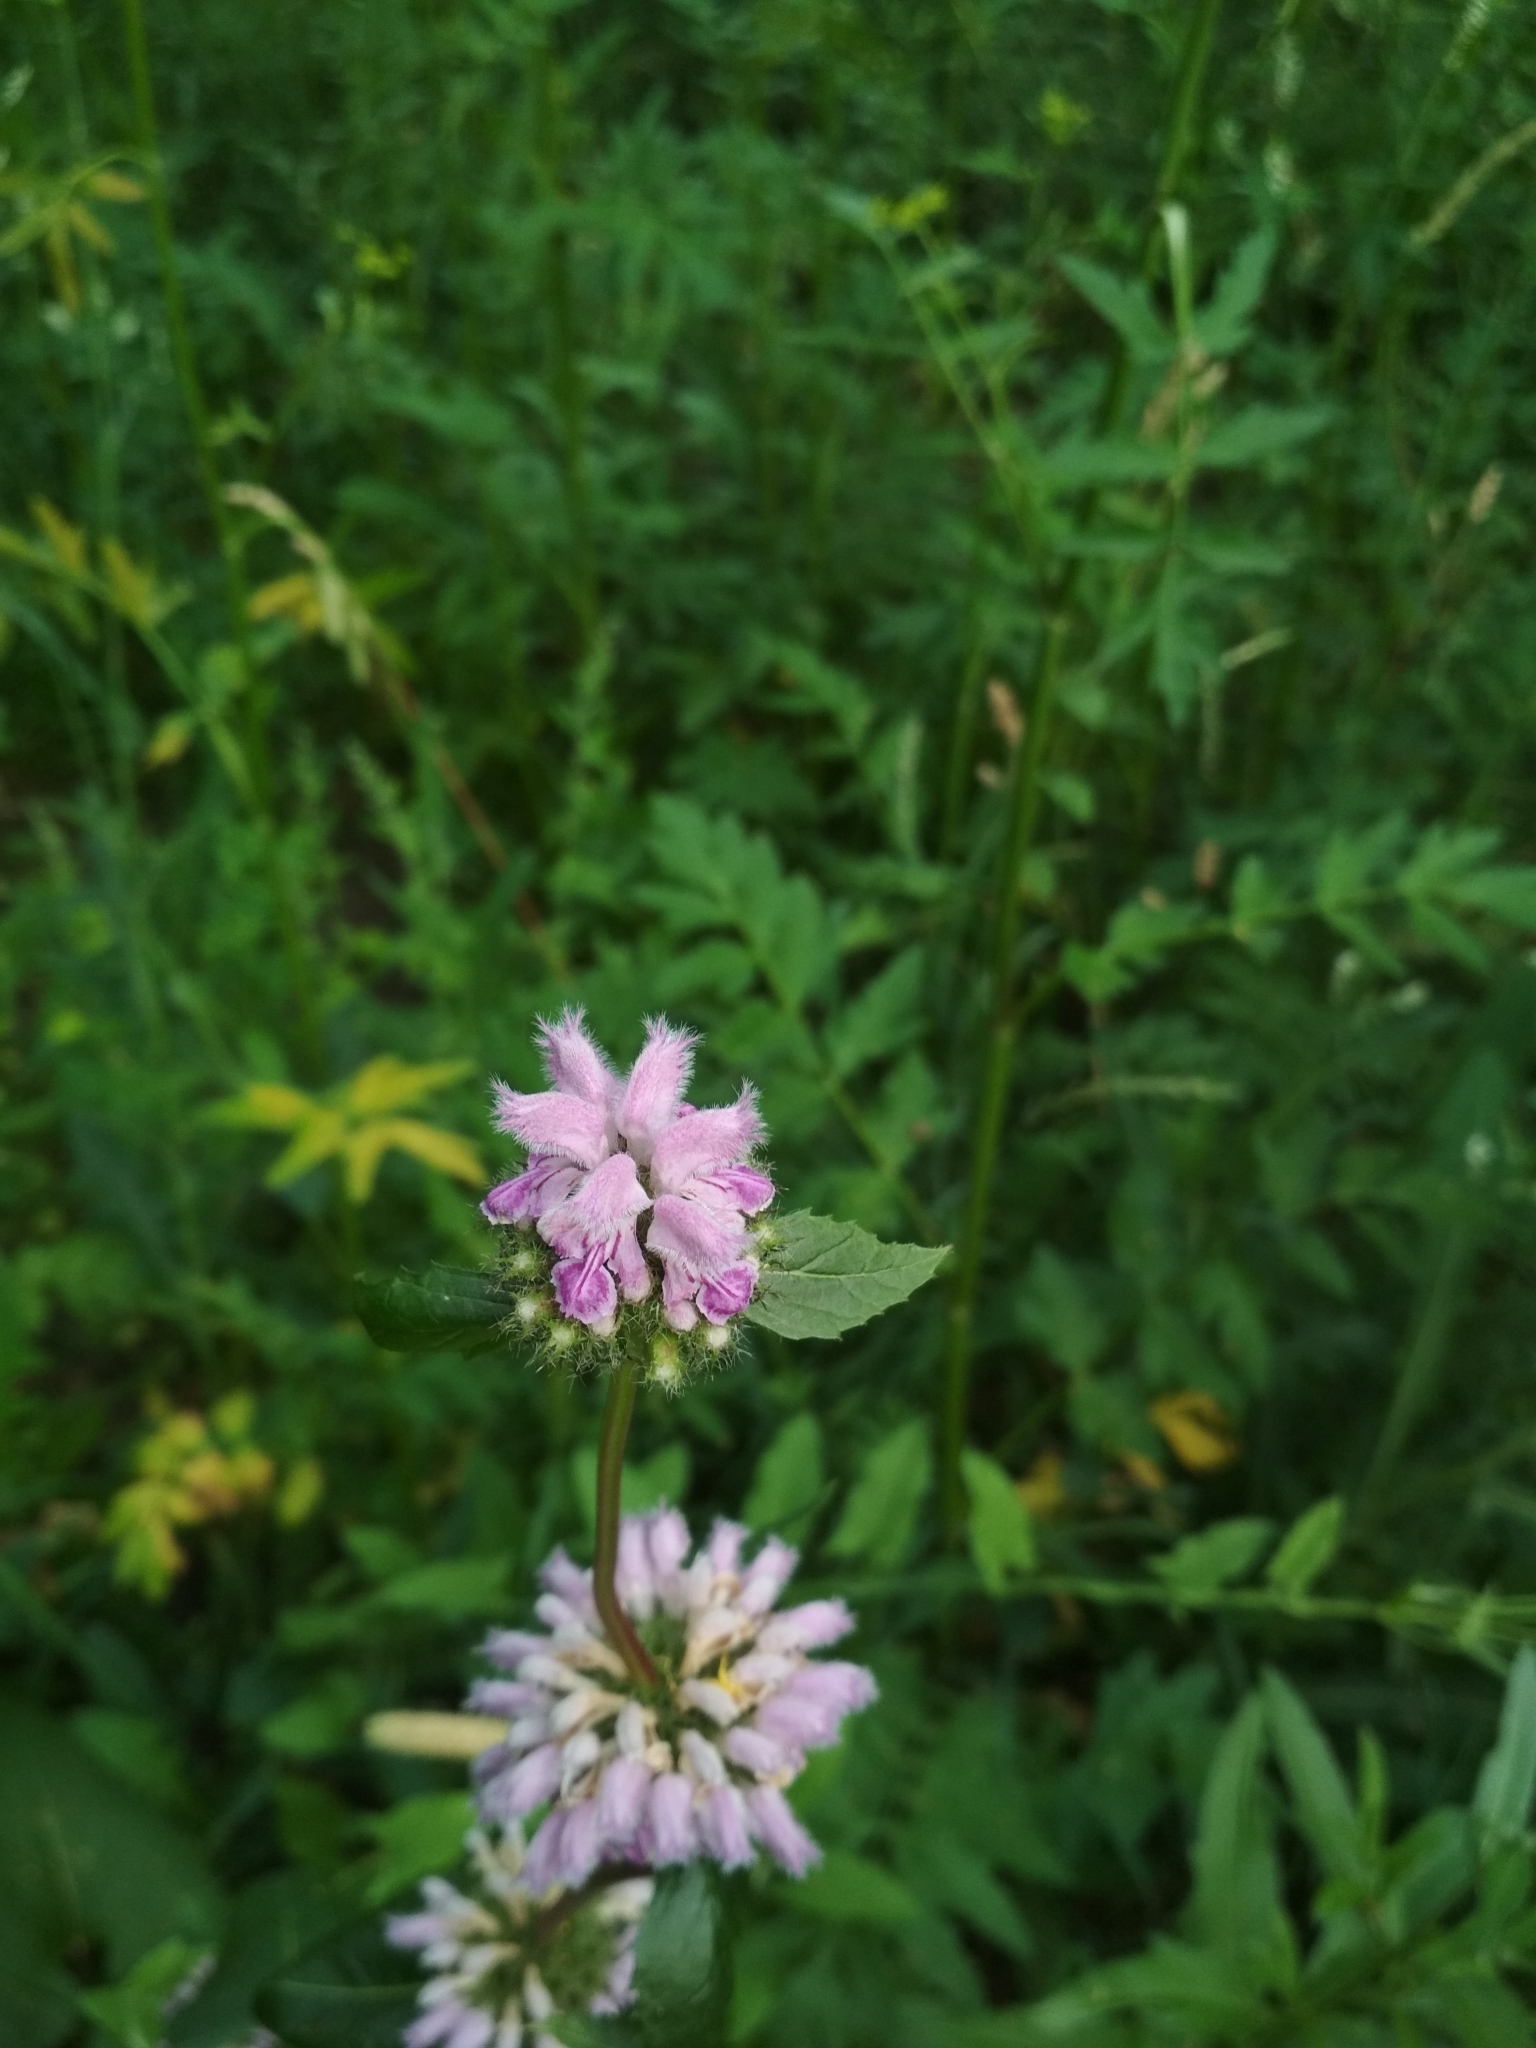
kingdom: Plantae
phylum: Tracheophyta
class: Magnoliopsida
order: Lamiales
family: Lamiaceae
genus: Phlomoides
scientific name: Phlomoides tuberosa
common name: Tuberous jerusalem sage
